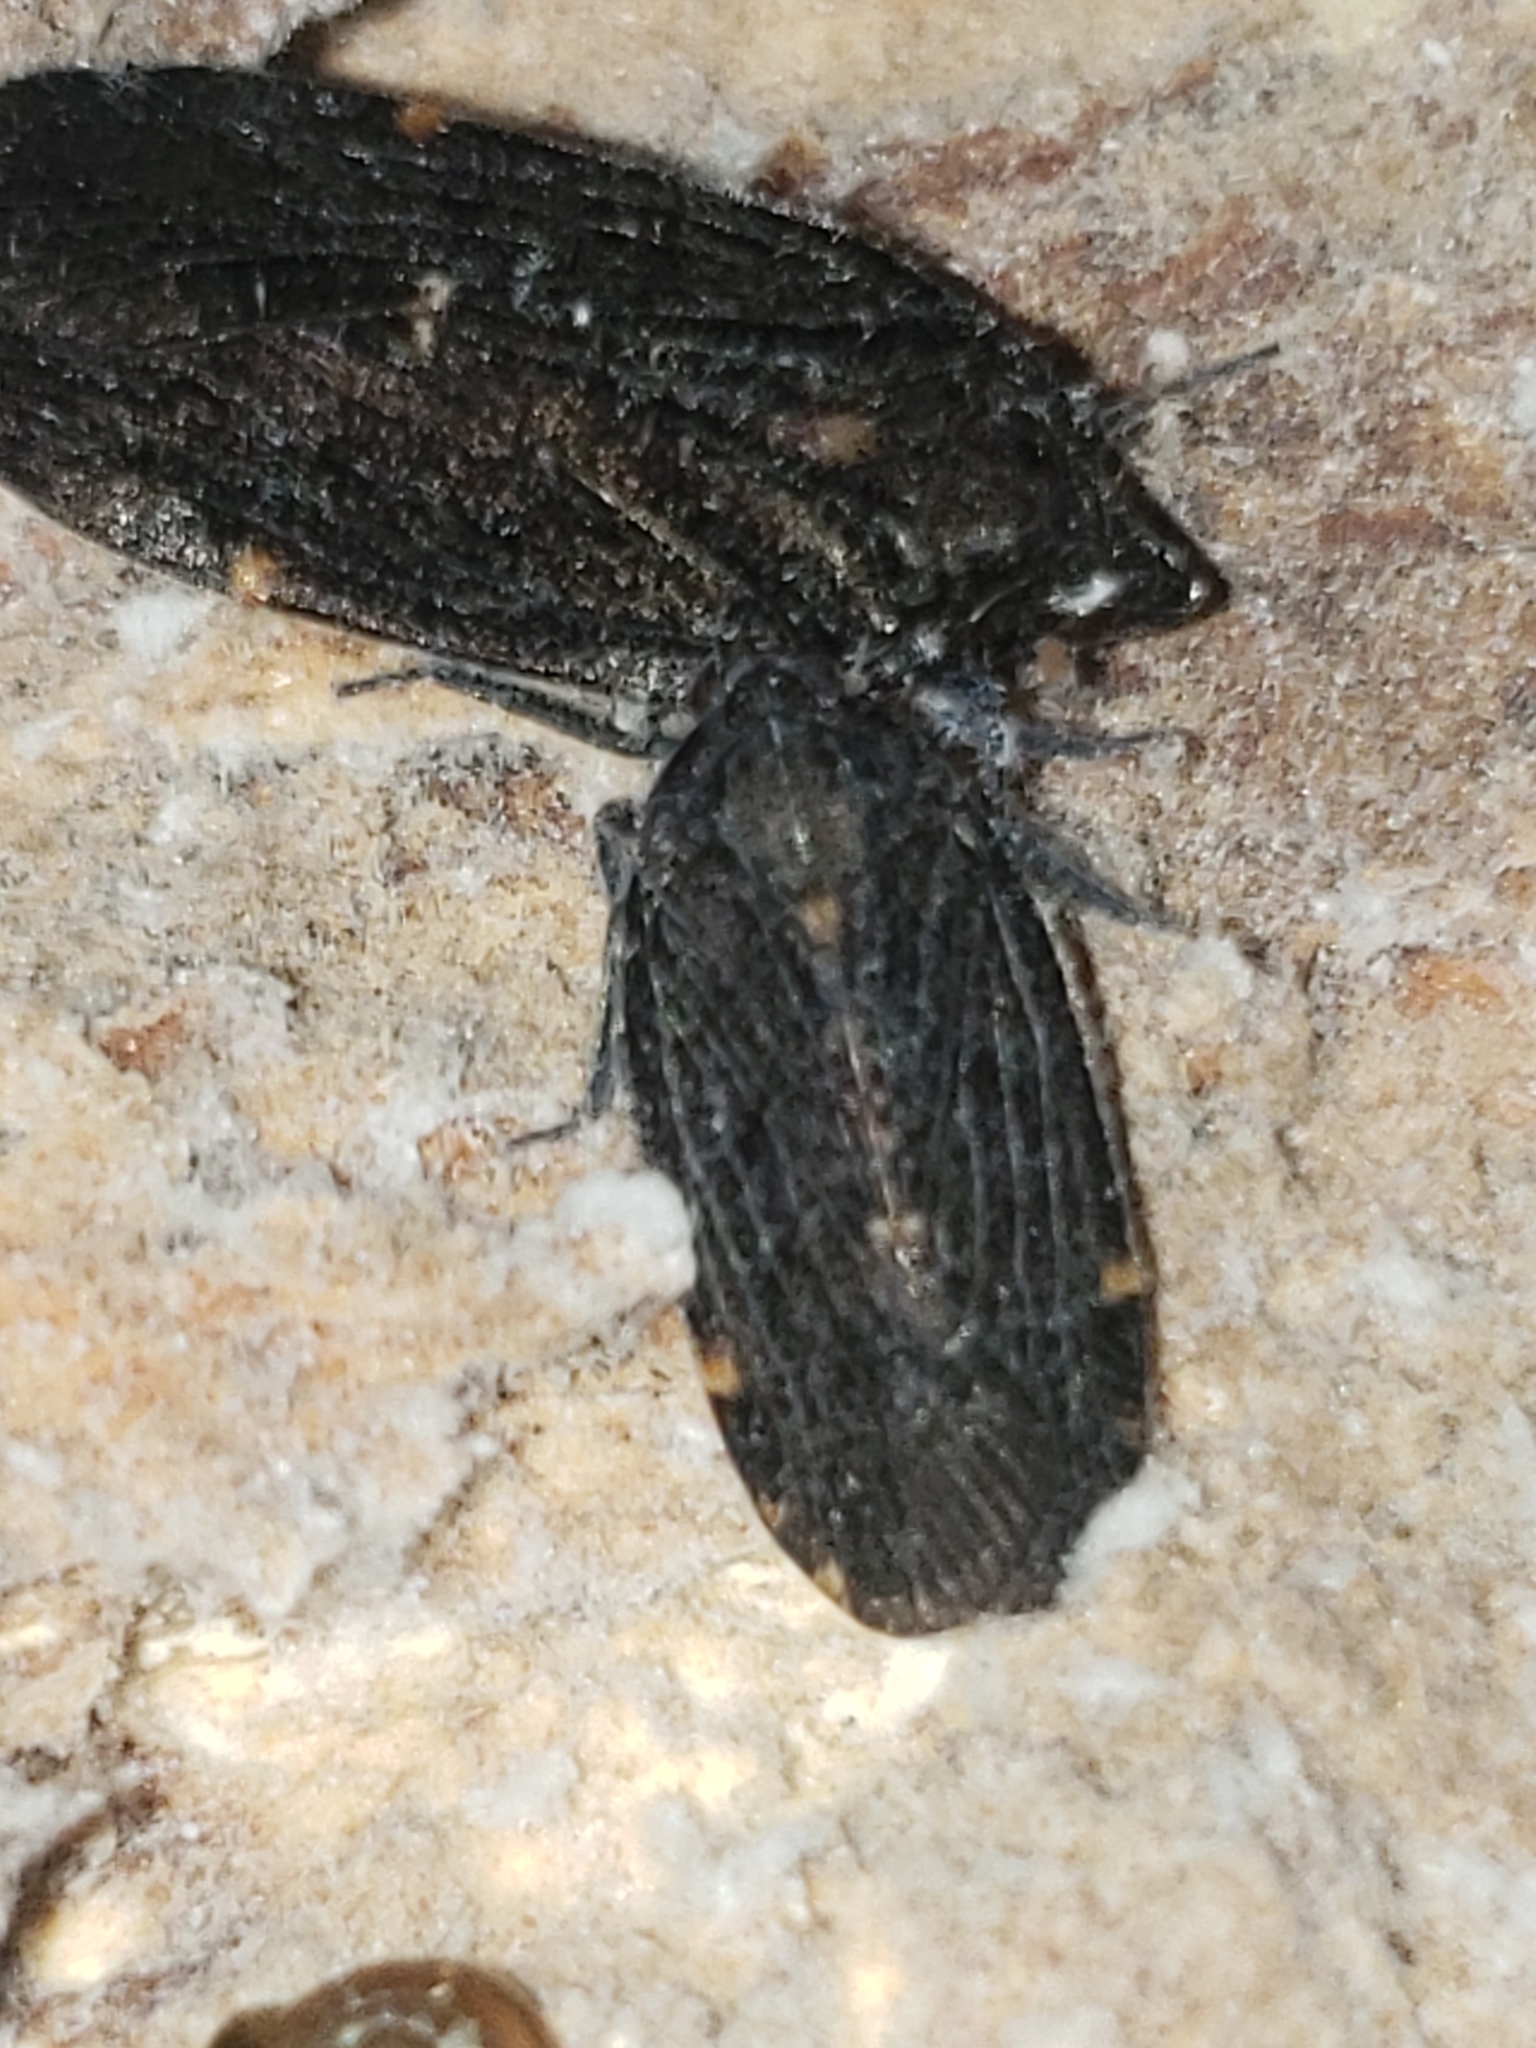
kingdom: Animalia
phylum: Arthropoda
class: Insecta
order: Hemiptera
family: Achilidae
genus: Cixidia
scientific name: Cixidia opaca
